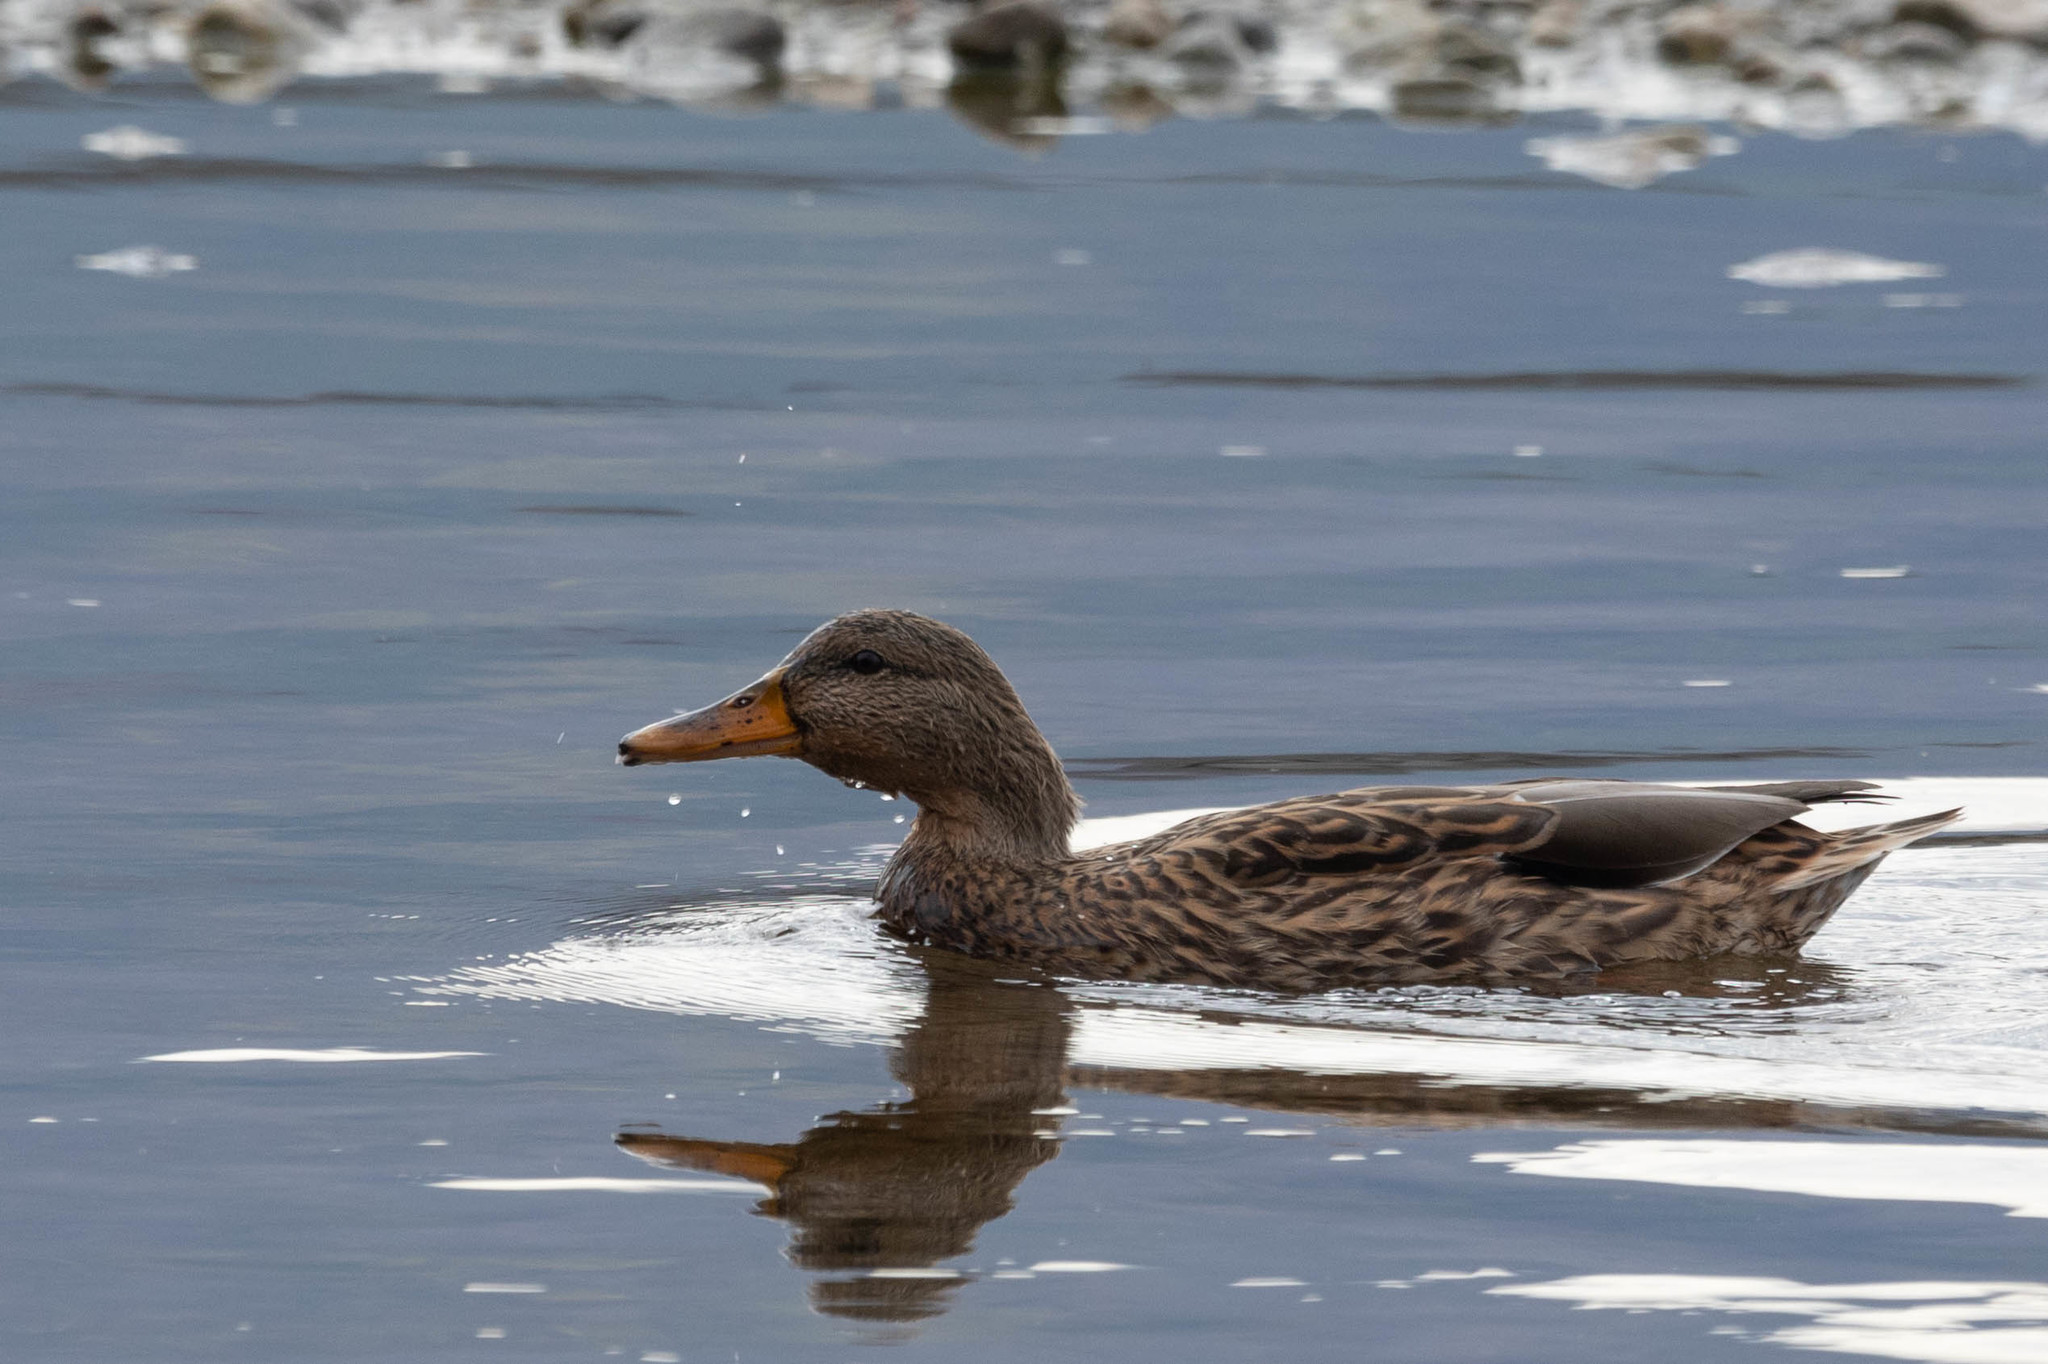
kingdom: Animalia
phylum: Chordata
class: Aves
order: Anseriformes
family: Anatidae
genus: Anas
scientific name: Anas platyrhynchos
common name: Mallard
